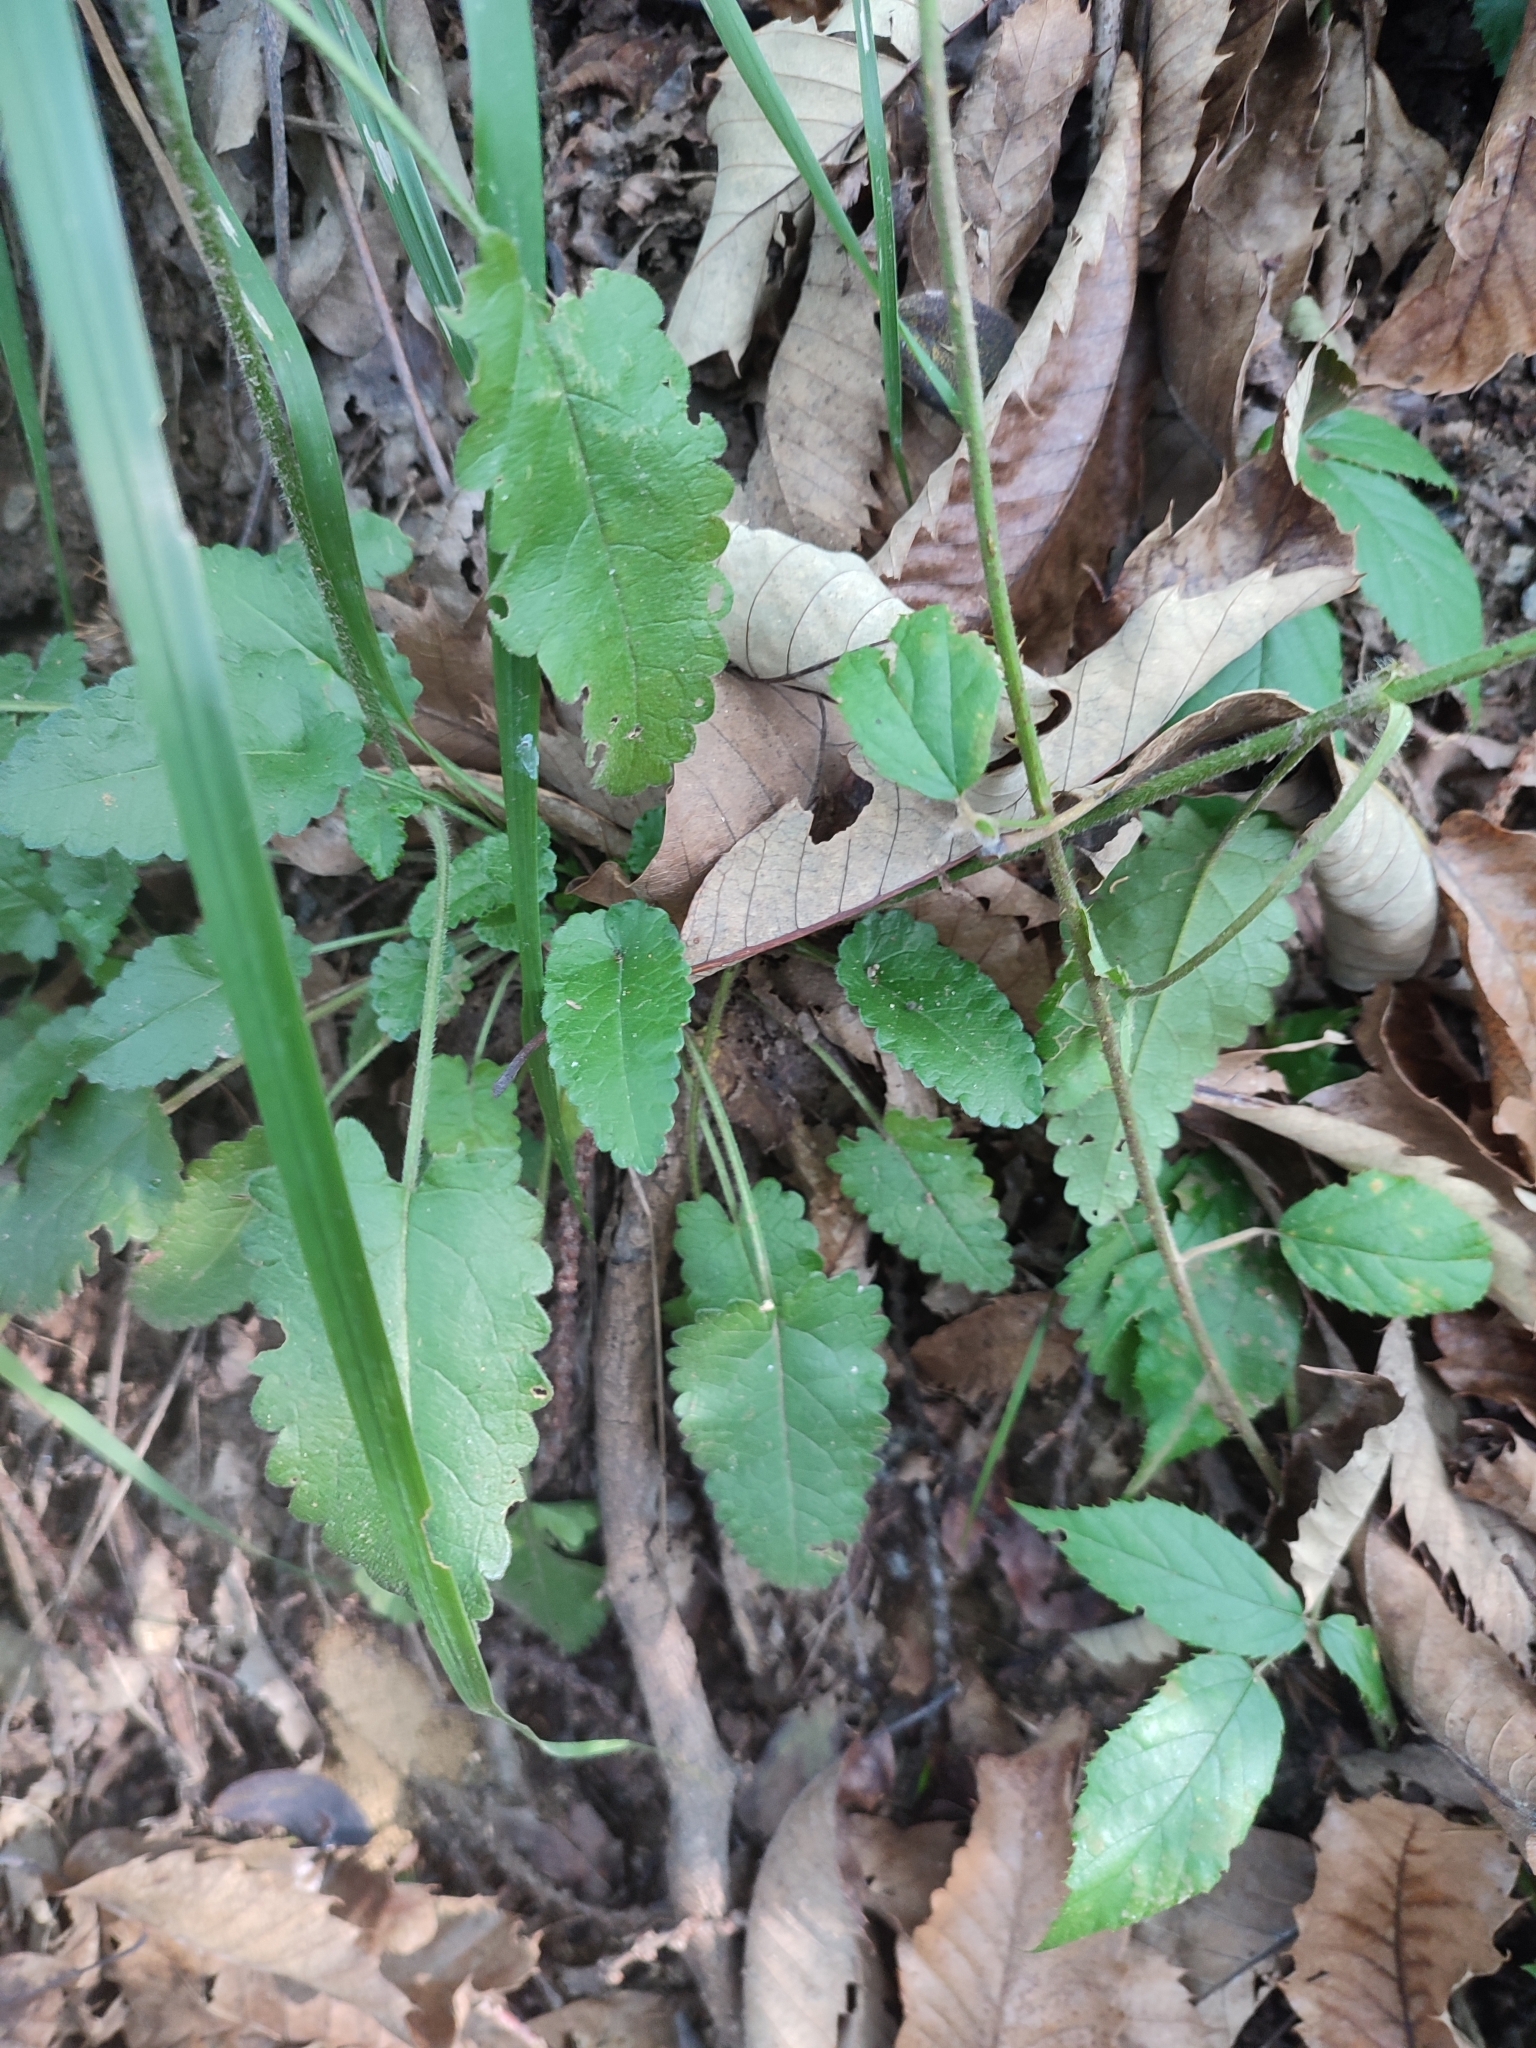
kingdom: Plantae
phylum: Tracheophyta
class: Magnoliopsida
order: Lamiales
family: Lamiaceae
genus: Betonica
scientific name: Betonica officinalis
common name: Bishop's-wort
